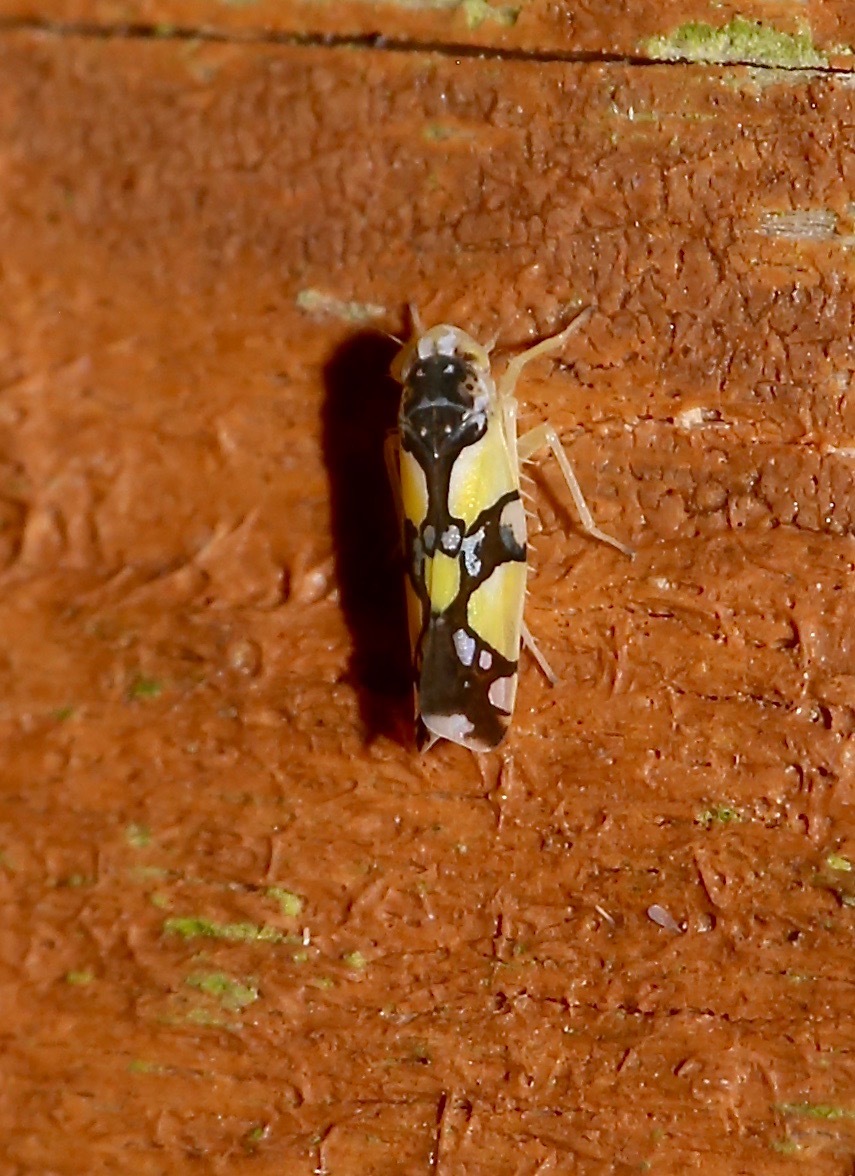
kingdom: Animalia
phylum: Arthropoda
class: Insecta
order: Hemiptera
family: Cicadellidae
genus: Protalebrella
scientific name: Protalebrella brasiliensis
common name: Brasilian leafhopper
